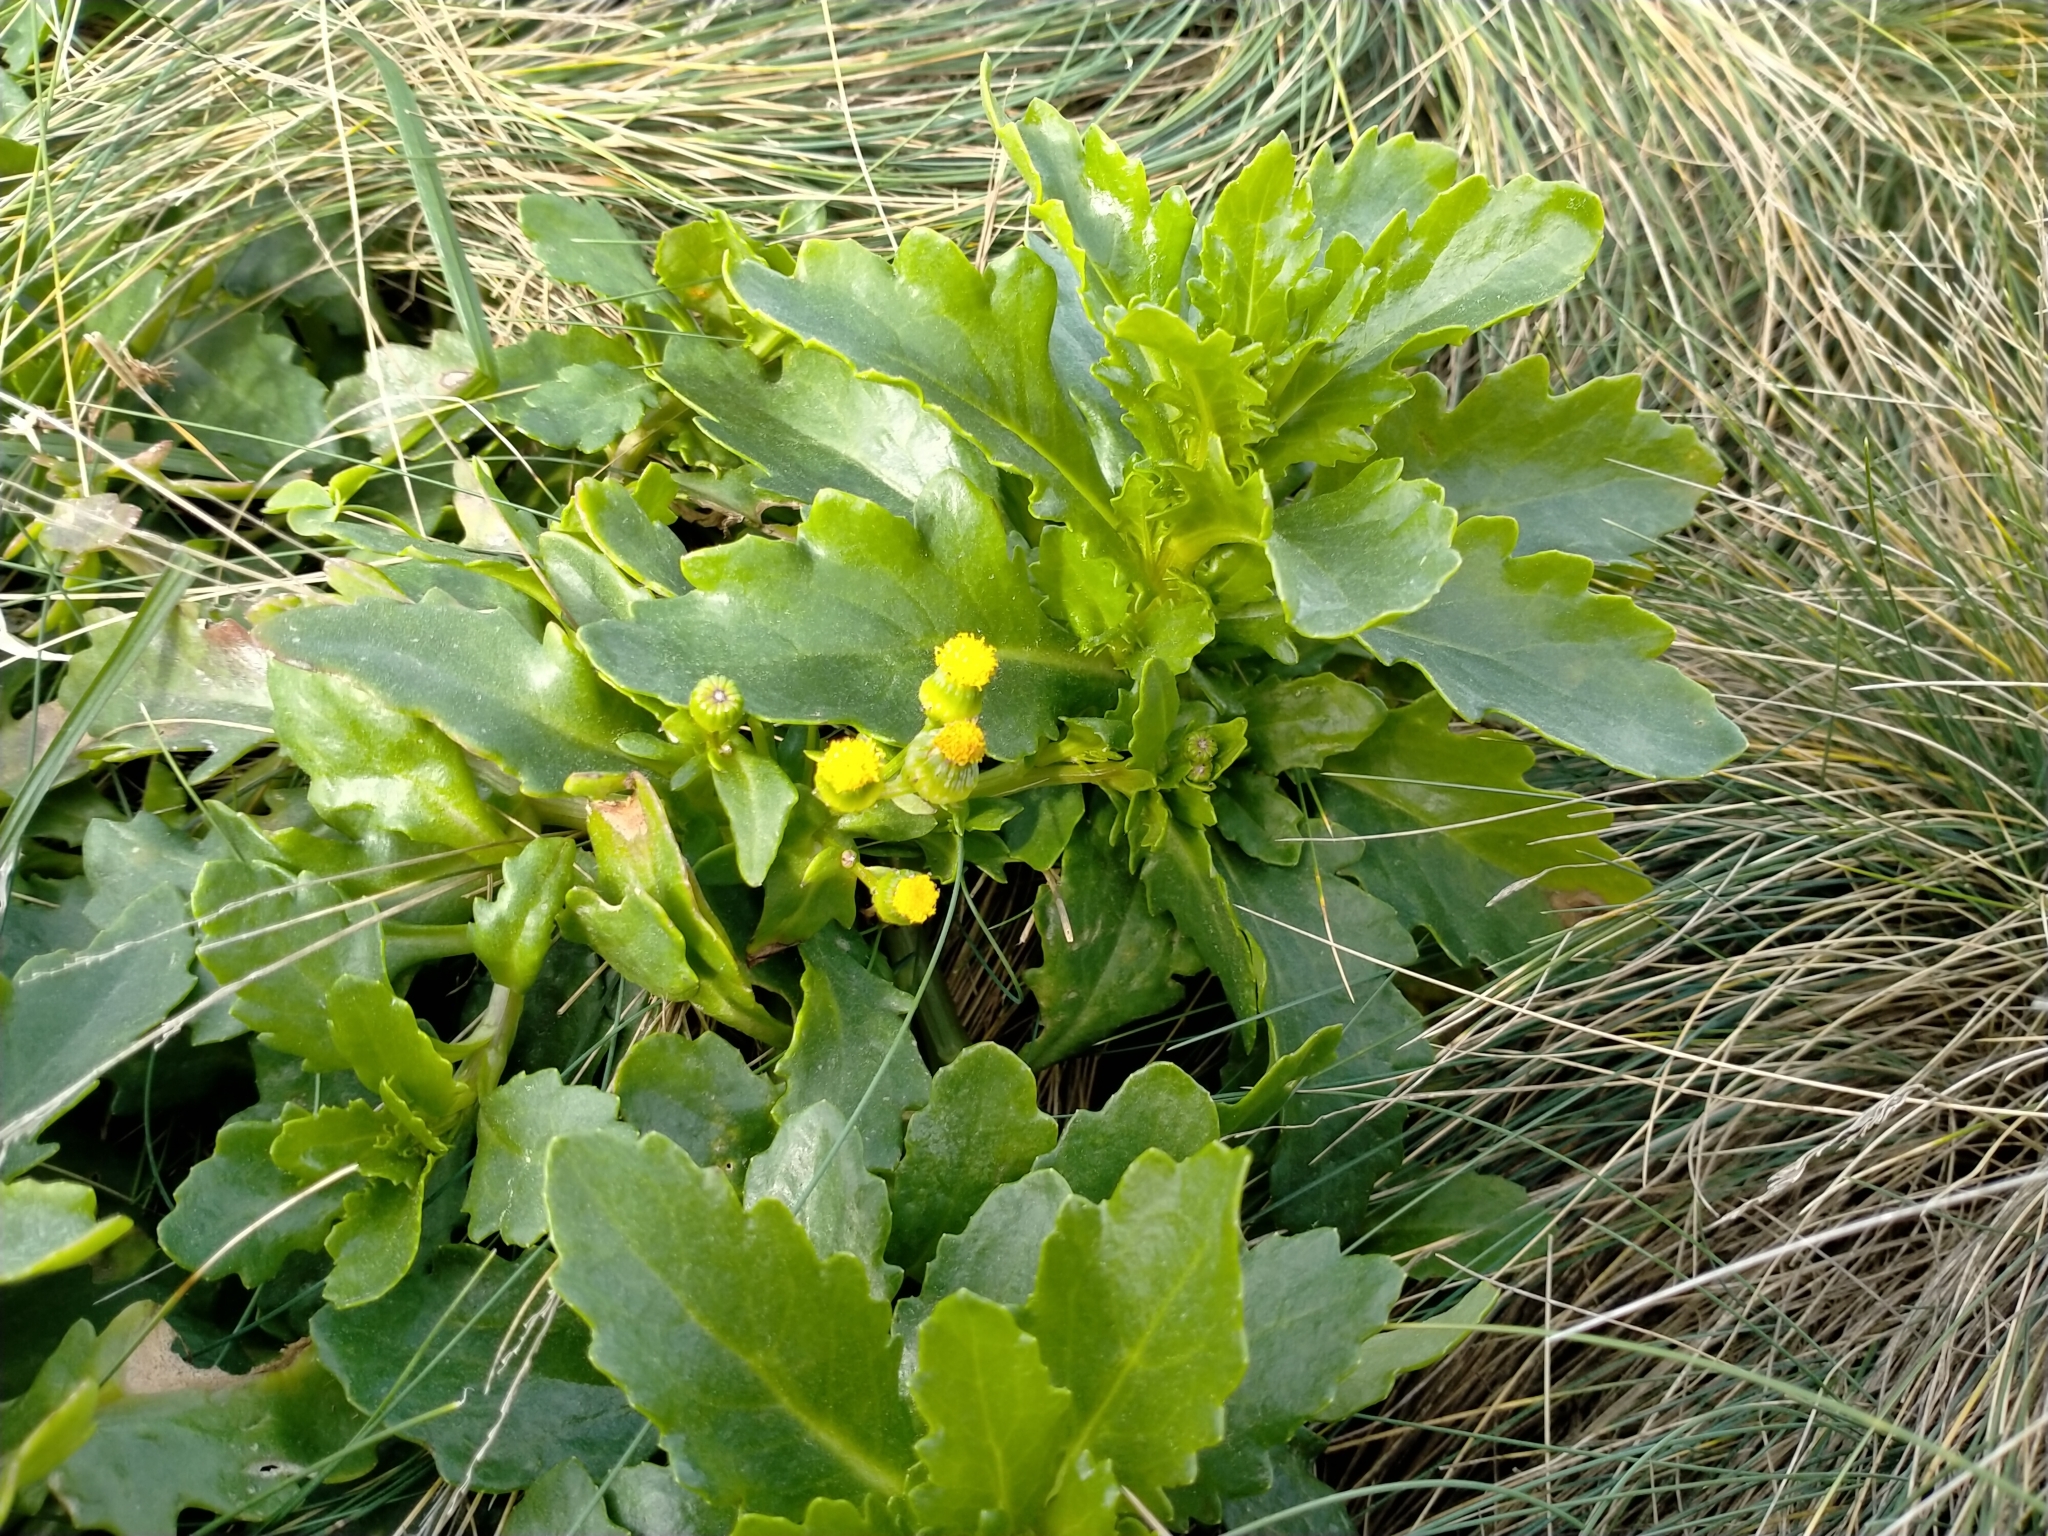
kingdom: Plantae
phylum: Tracheophyta
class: Magnoliopsida
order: Asterales
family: Asteraceae
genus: Senecio
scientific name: Senecio matatini
